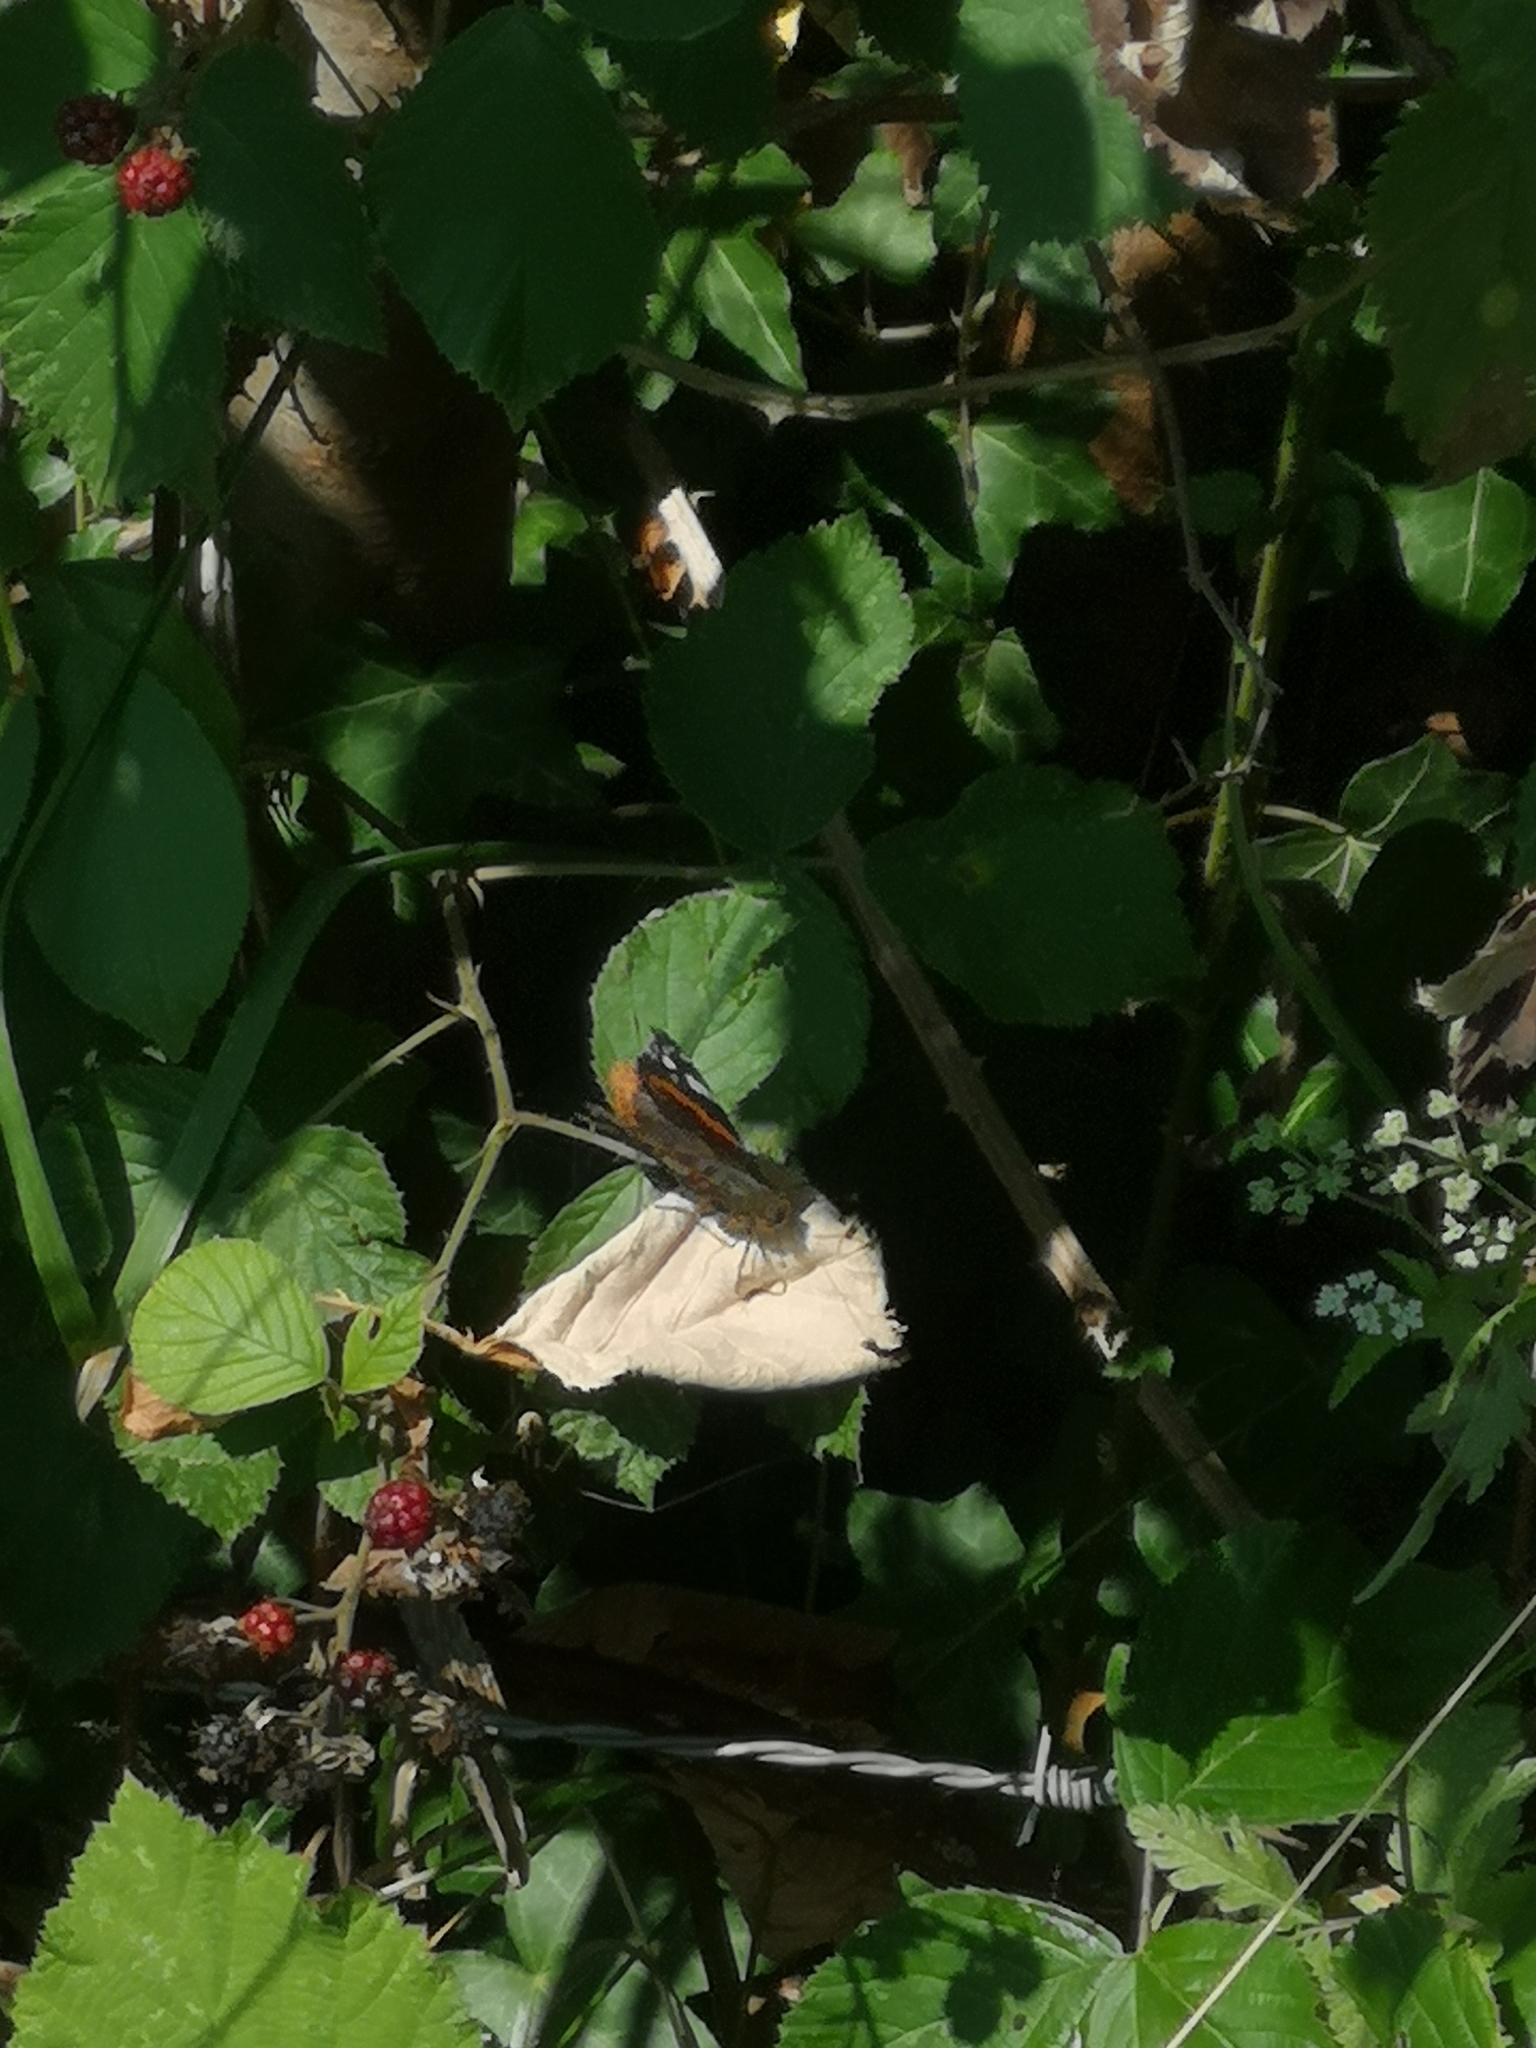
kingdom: Animalia
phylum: Arthropoda
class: Insecta
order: Lepidoptera
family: Nymphalidae
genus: Vanessa
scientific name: Vanessa atalanta
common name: Red admiral
